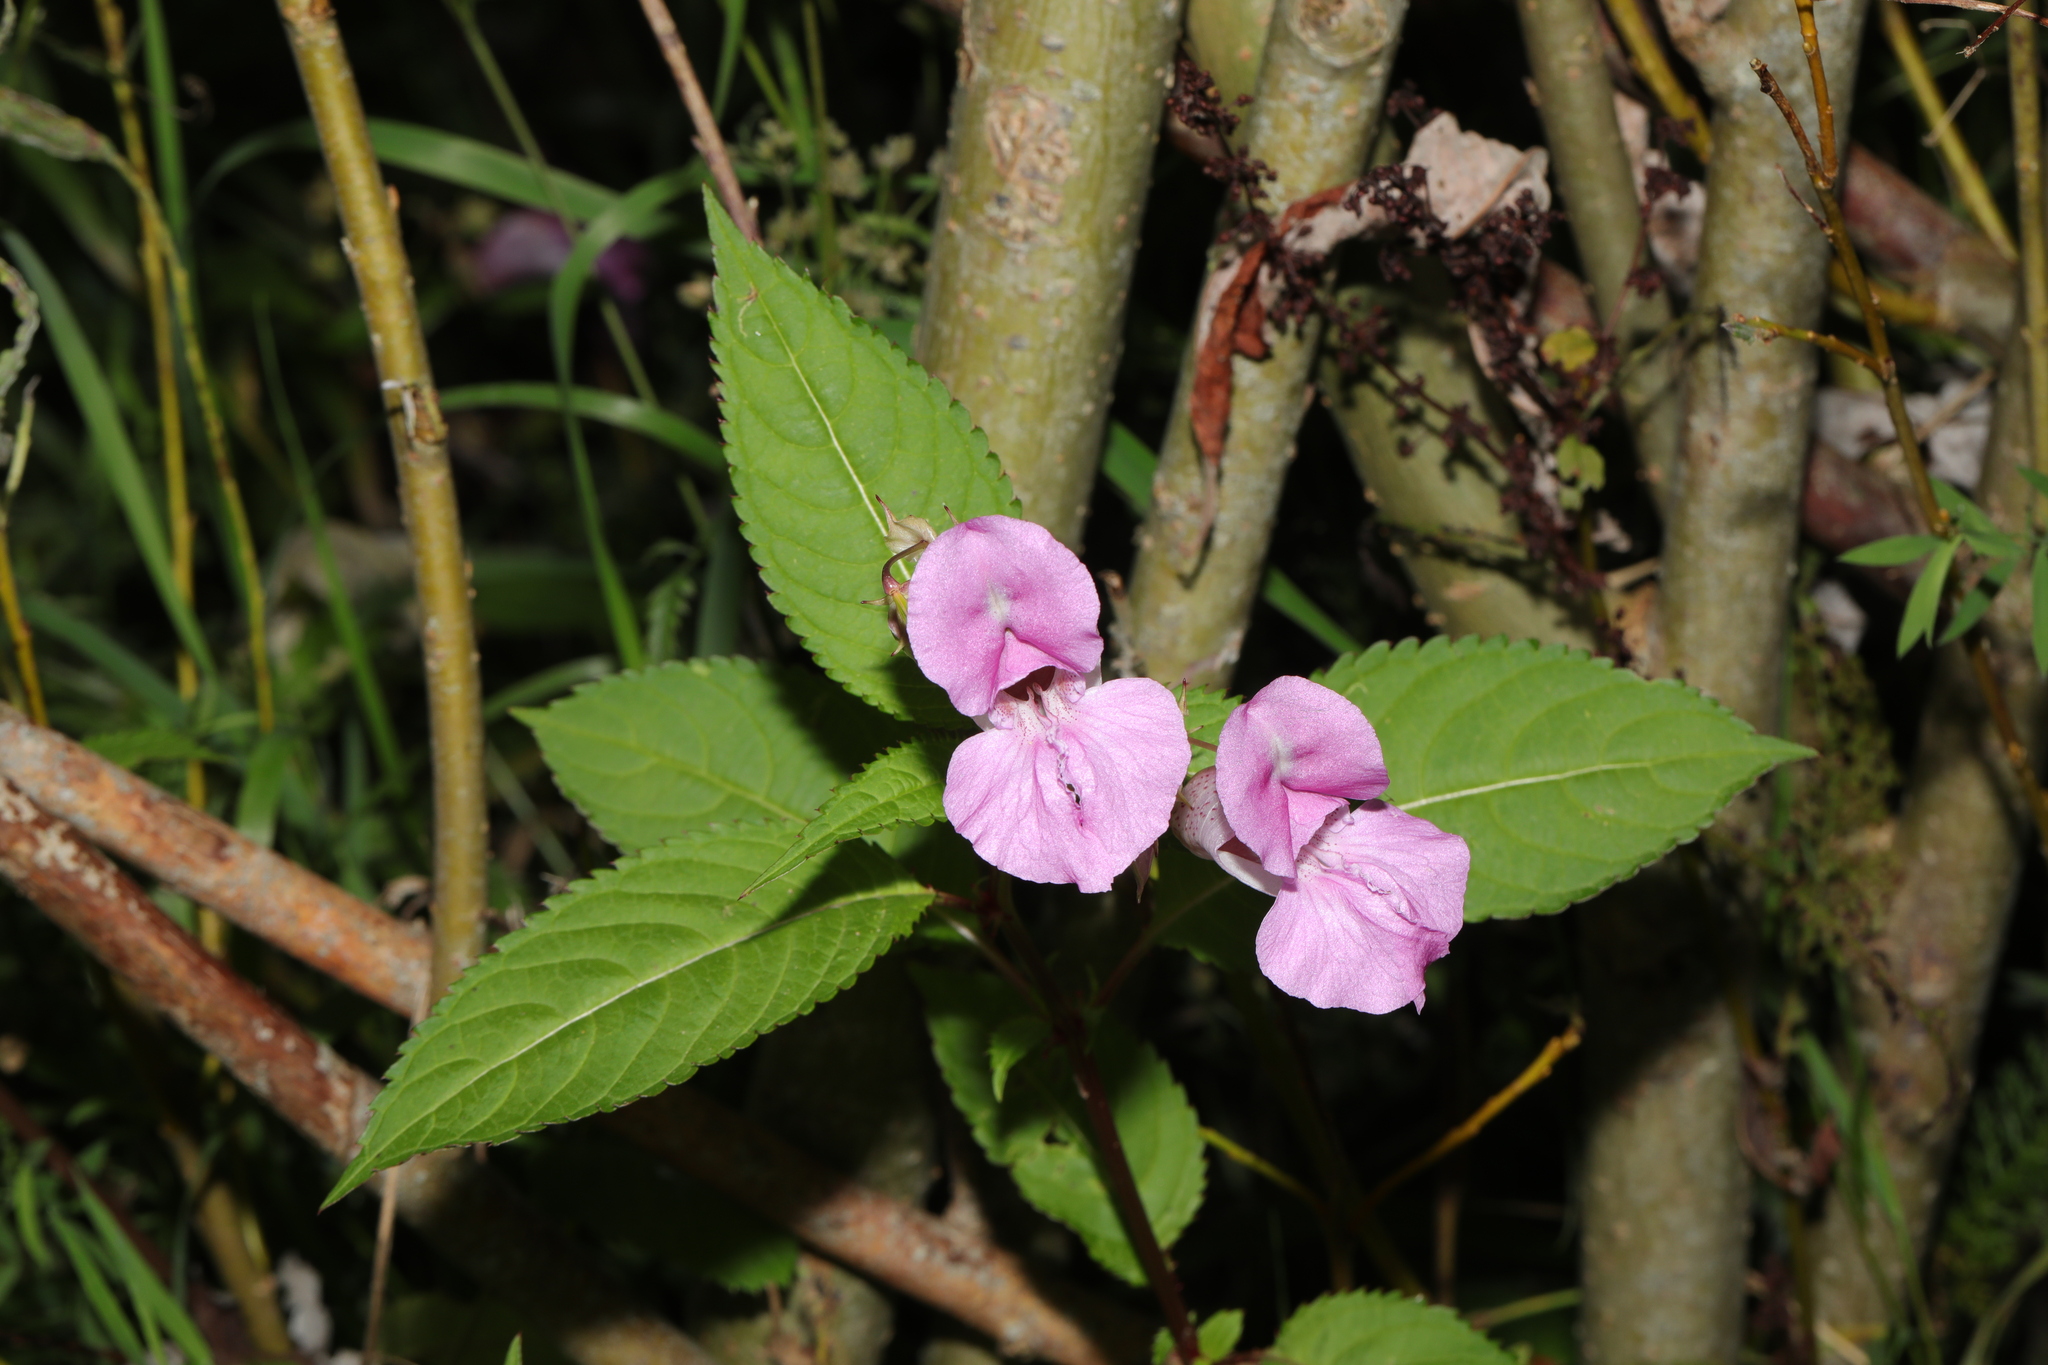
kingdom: Plantae
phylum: Tracheophyta
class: Magnoliopsida
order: Ericales
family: Balsaminaceae
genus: Impatiens
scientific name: Impatiens glandulifera
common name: Himalayan balsam
